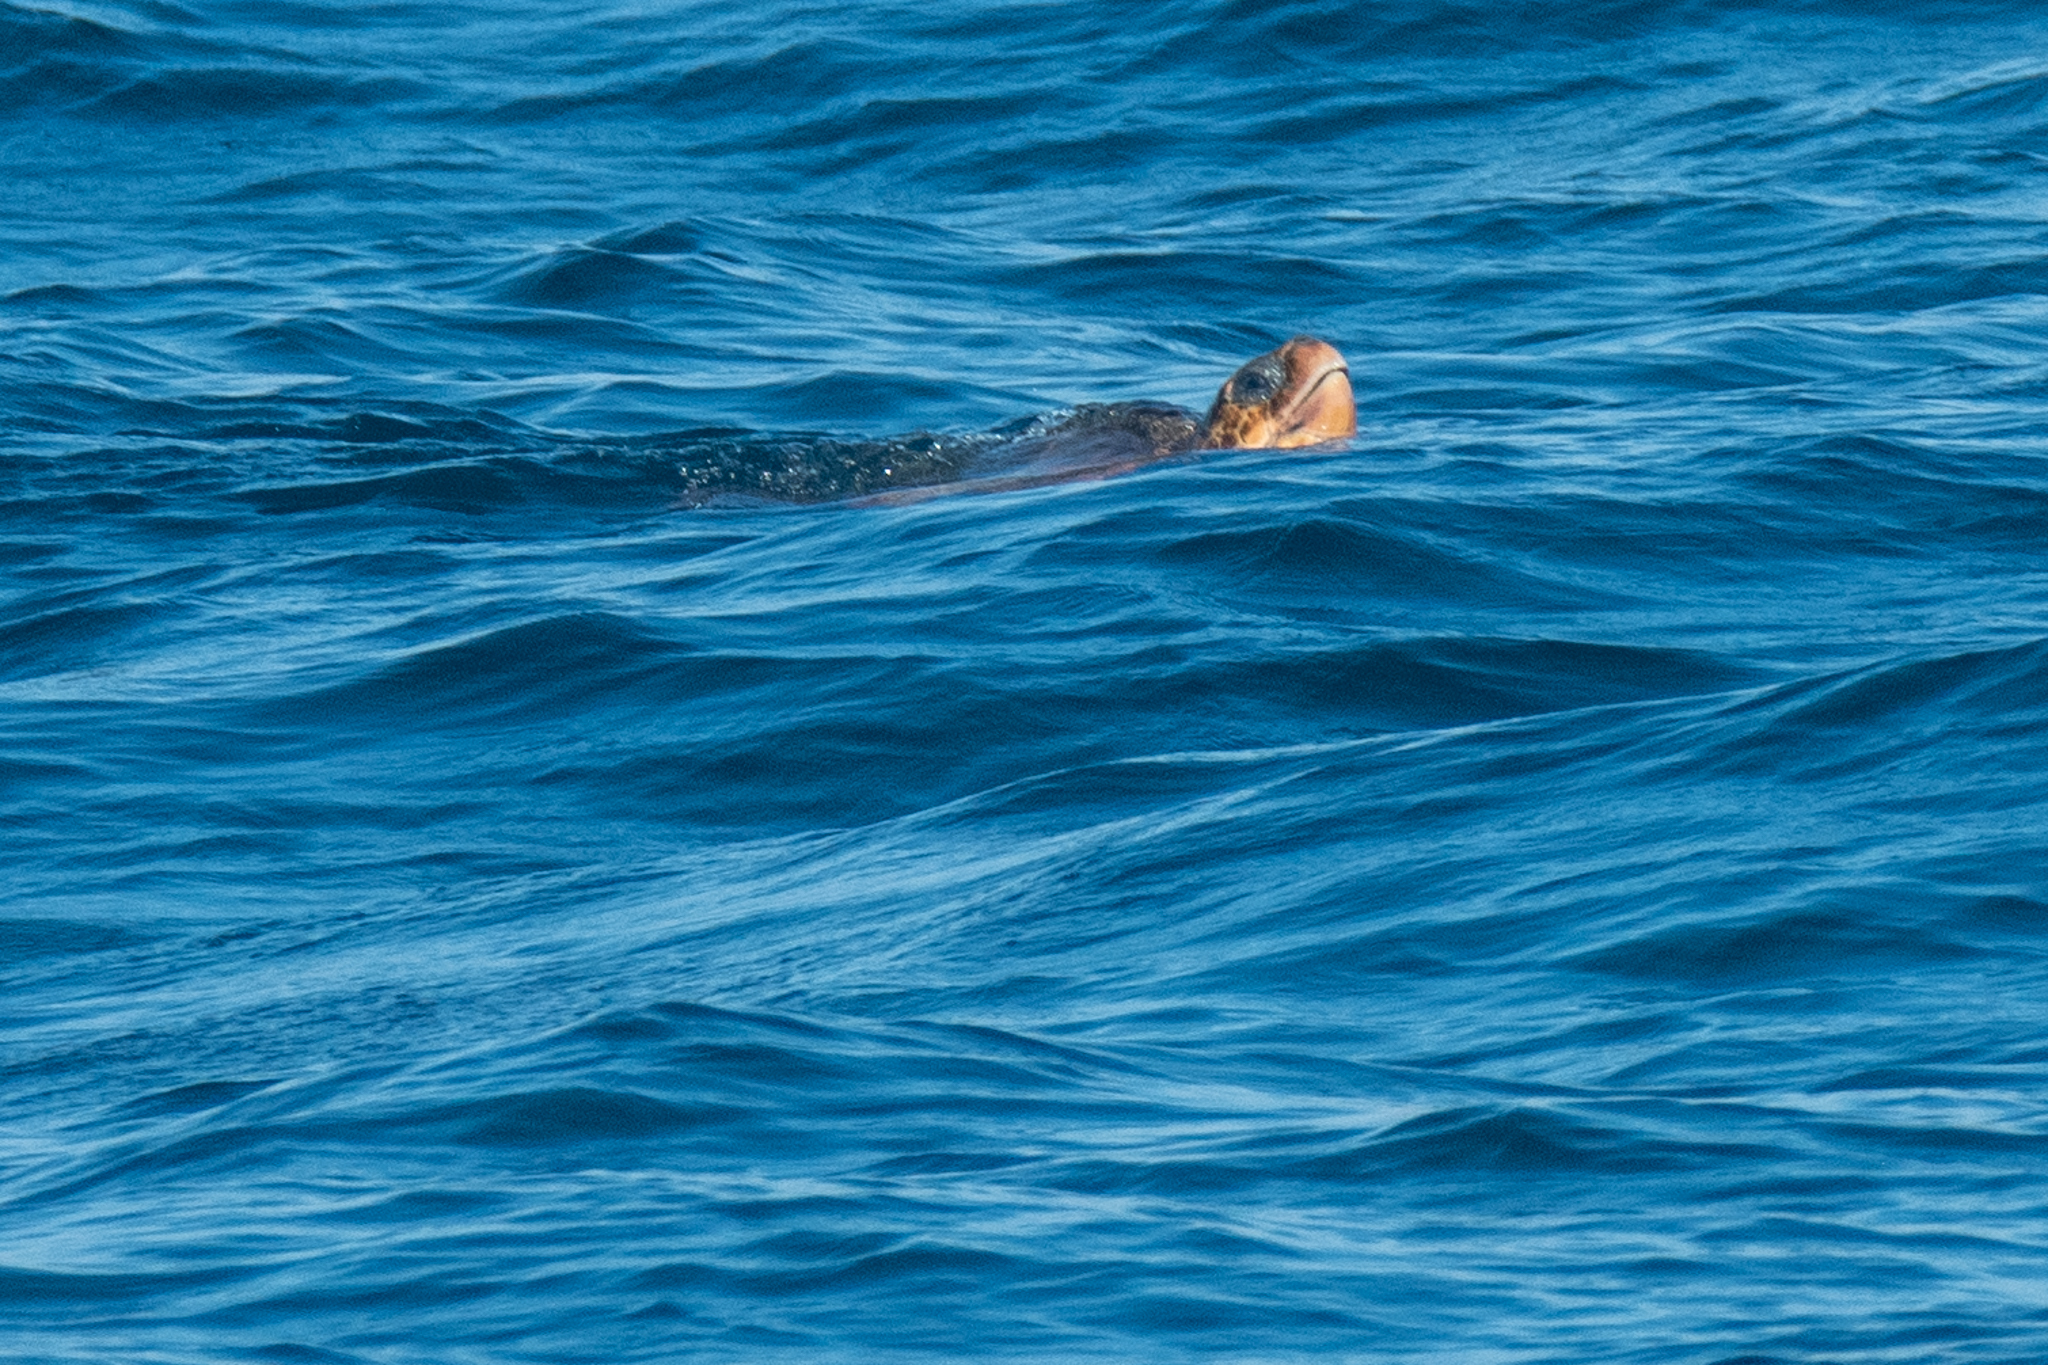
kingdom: Animalia
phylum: Chordata
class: Testudines
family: Cheloniidae
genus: Caretta
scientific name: Caretta caretta
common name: Loggerhead sea turtle
